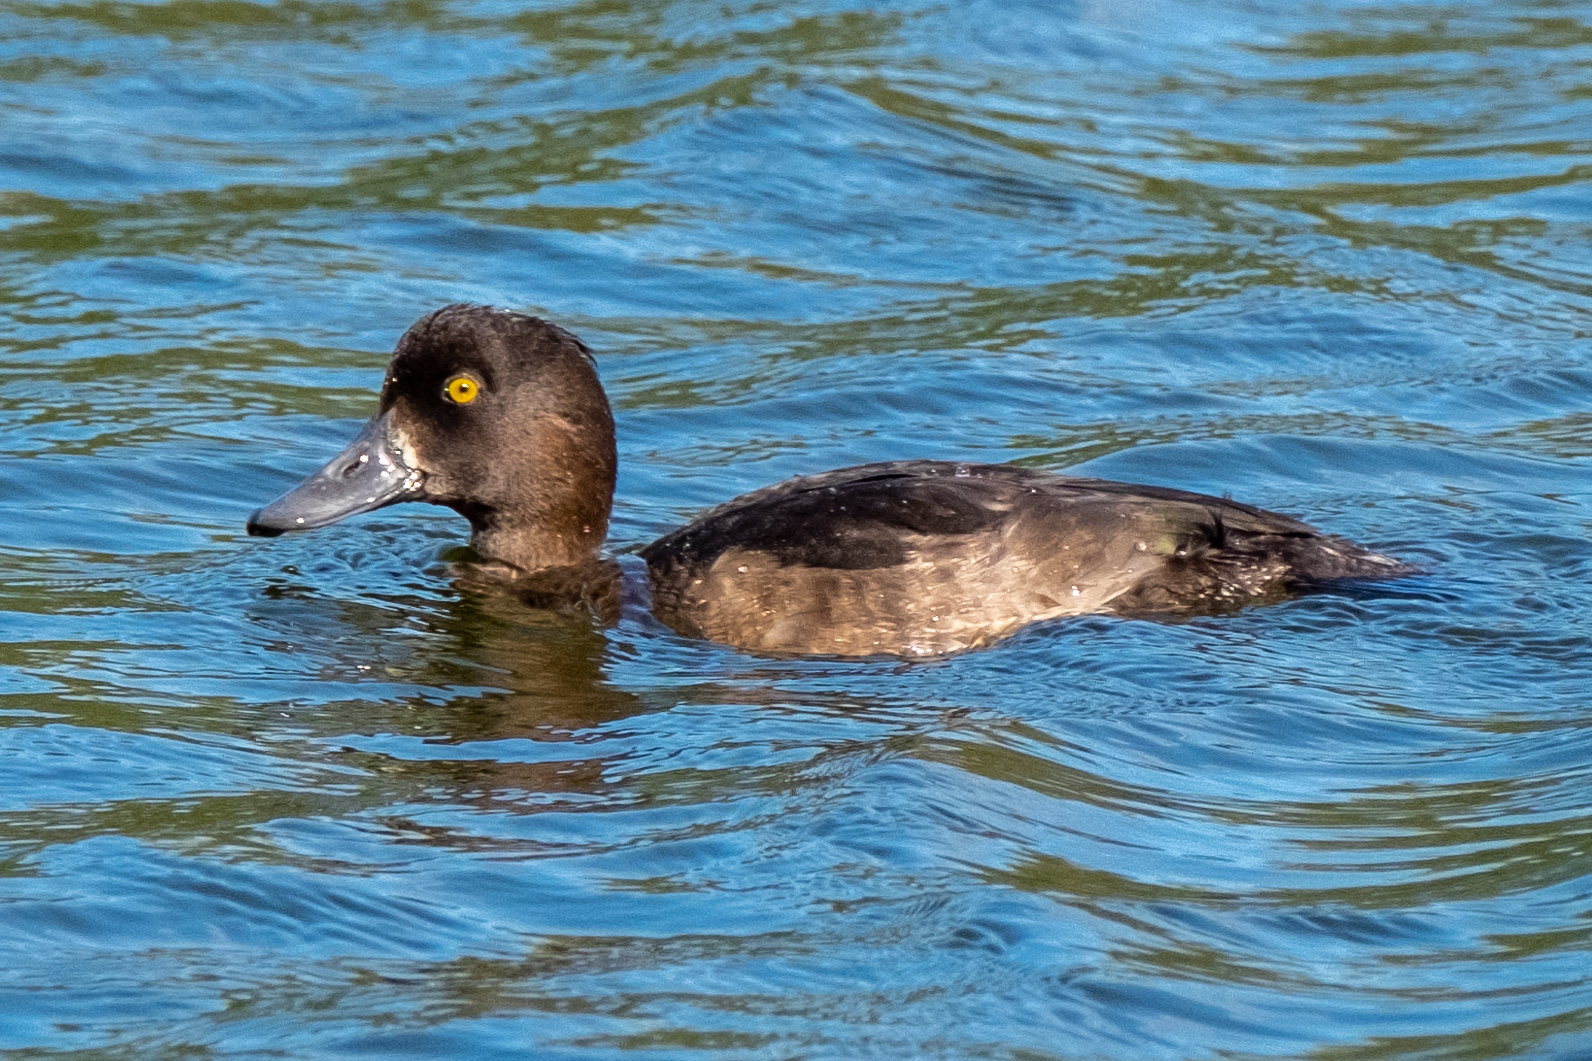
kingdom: Animalia
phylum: Chordata
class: Aves
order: Anseriformes
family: Anatidae
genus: Aythya
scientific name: Aythya fuligula
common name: Tufted duck
